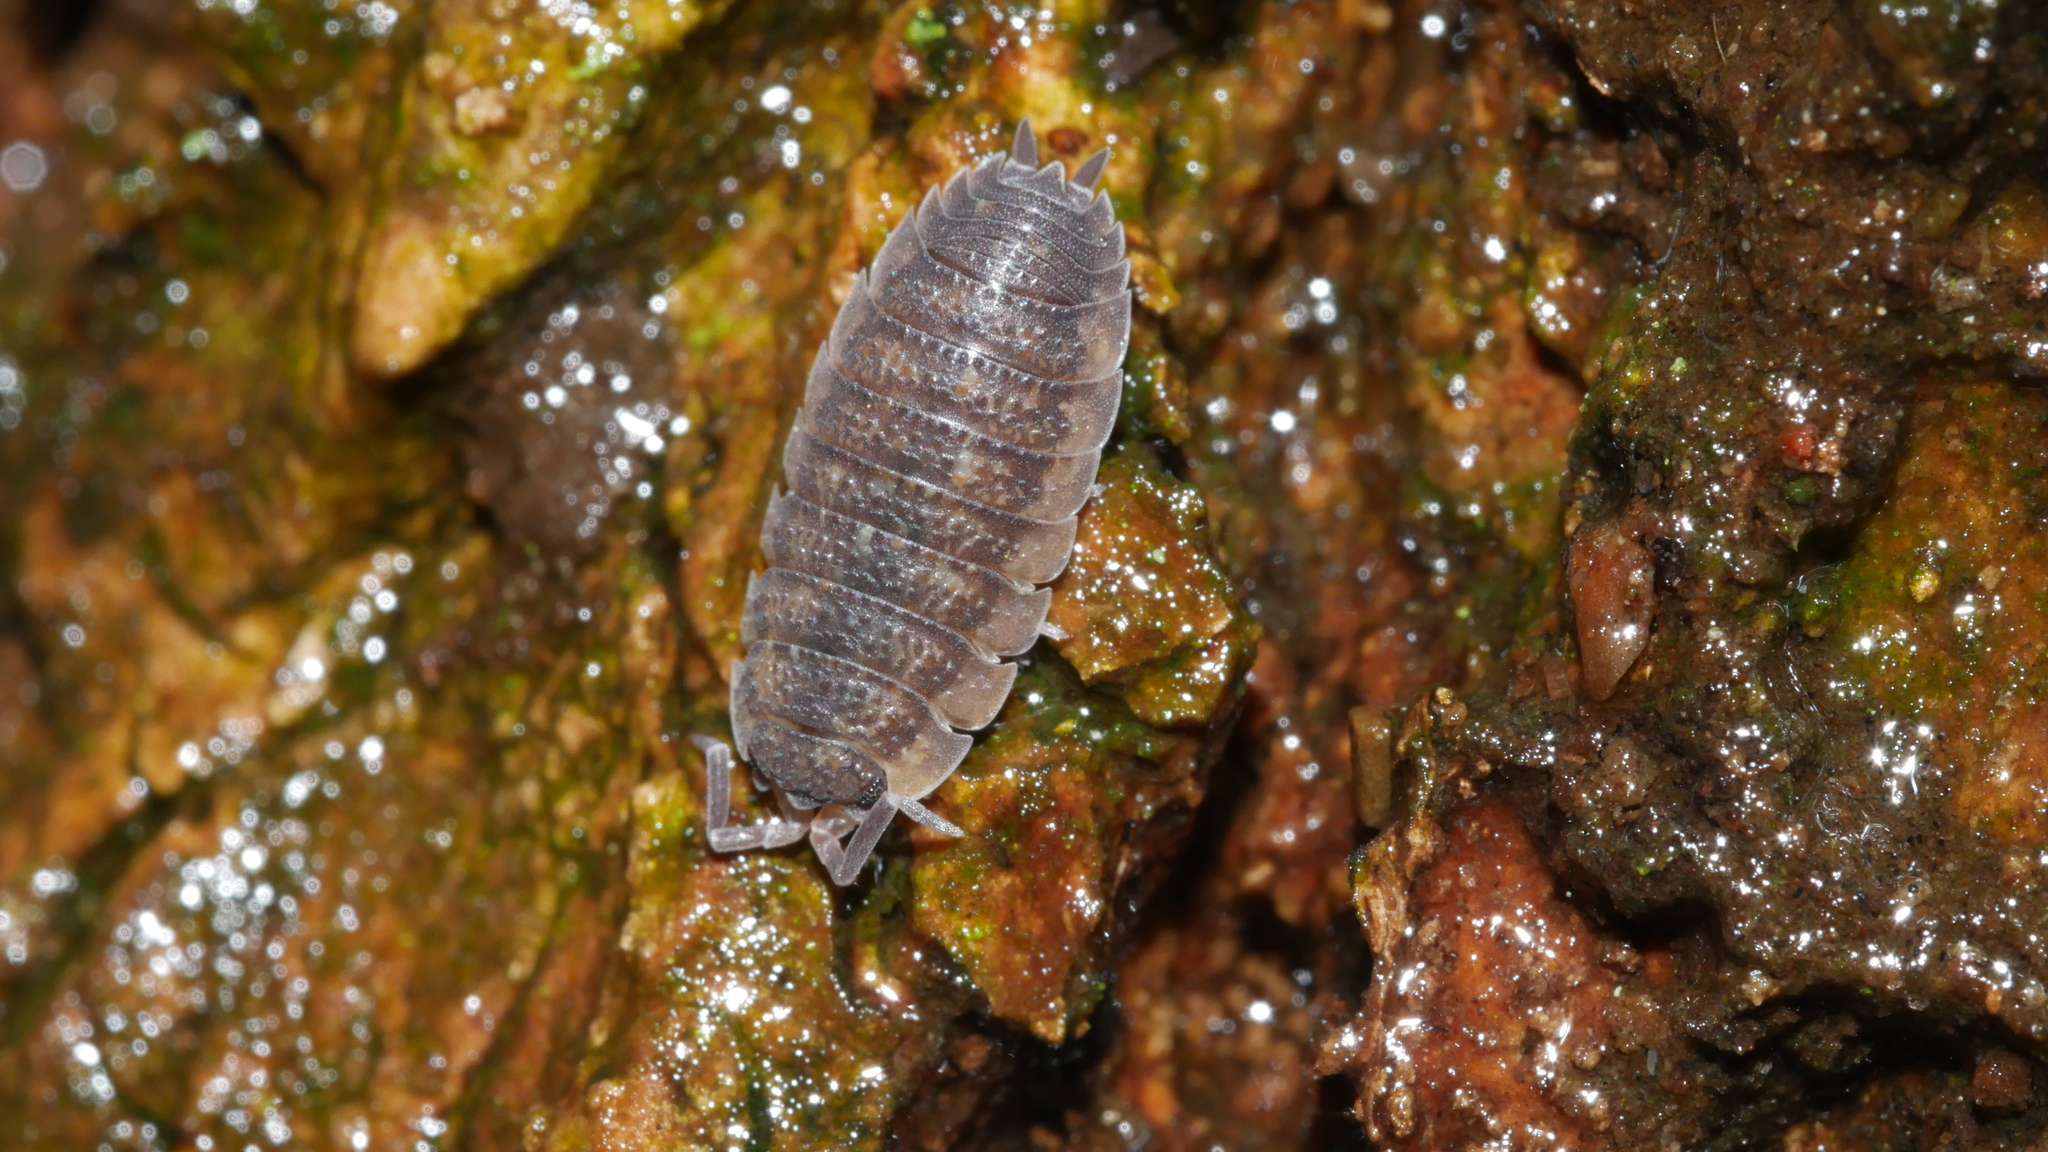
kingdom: Animalia
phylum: Arthropoda
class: Malacostraca
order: Isopoda
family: Porcellionidae
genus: Porcellio
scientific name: Porcellio scaber
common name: Common rough woodlouse
